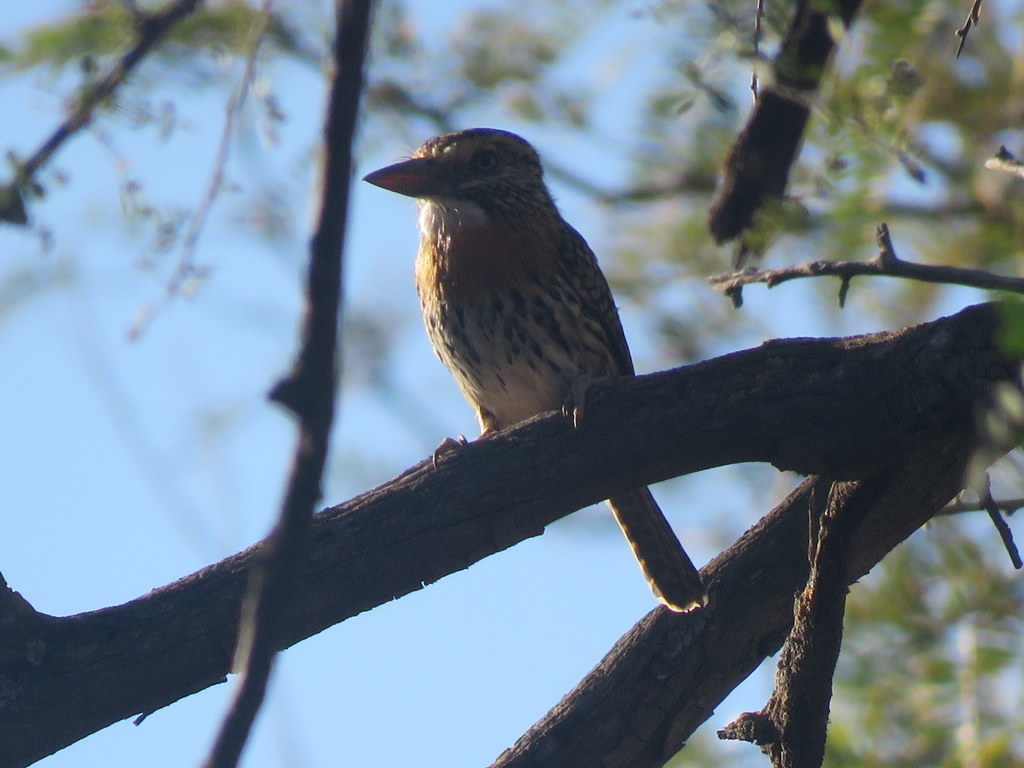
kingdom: Animalia
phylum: Chordata
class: Aves
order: Piciformes
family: Bucconidae
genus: Nystalus
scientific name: Nystalus maculatus
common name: Caatinga puffbird
